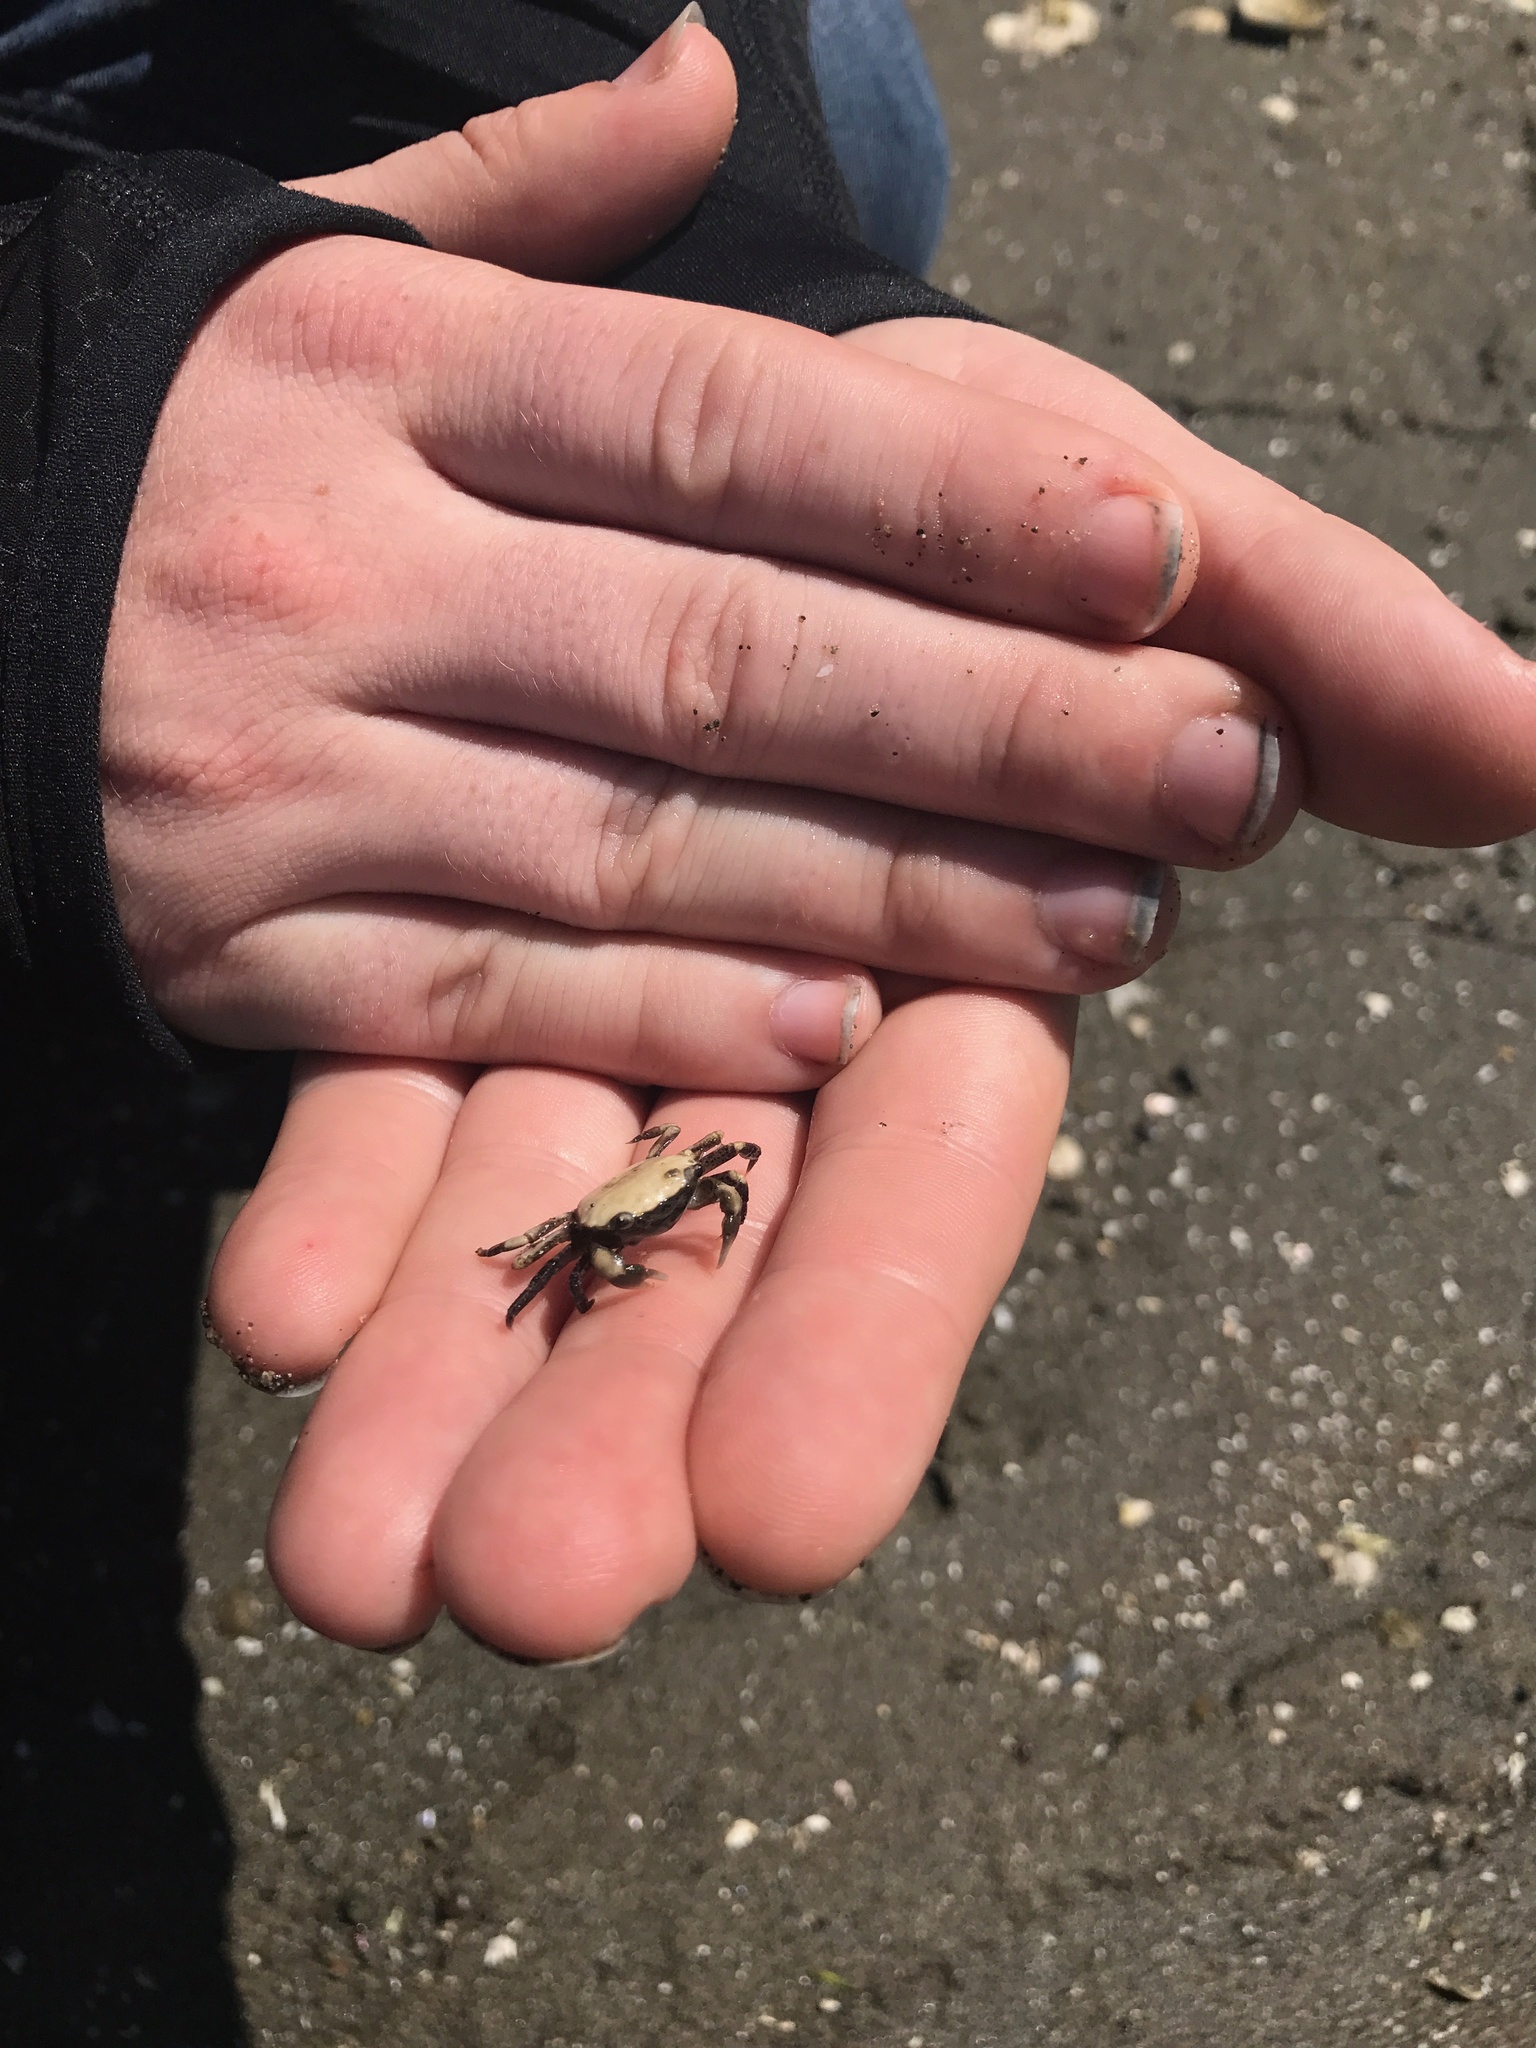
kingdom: Animalia
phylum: Arthropoda
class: Malacostraca
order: Decapoda
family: Varunidae
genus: Hemigrapsus
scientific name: Hemigrapsus oregonensis
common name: Yellow shore crab
